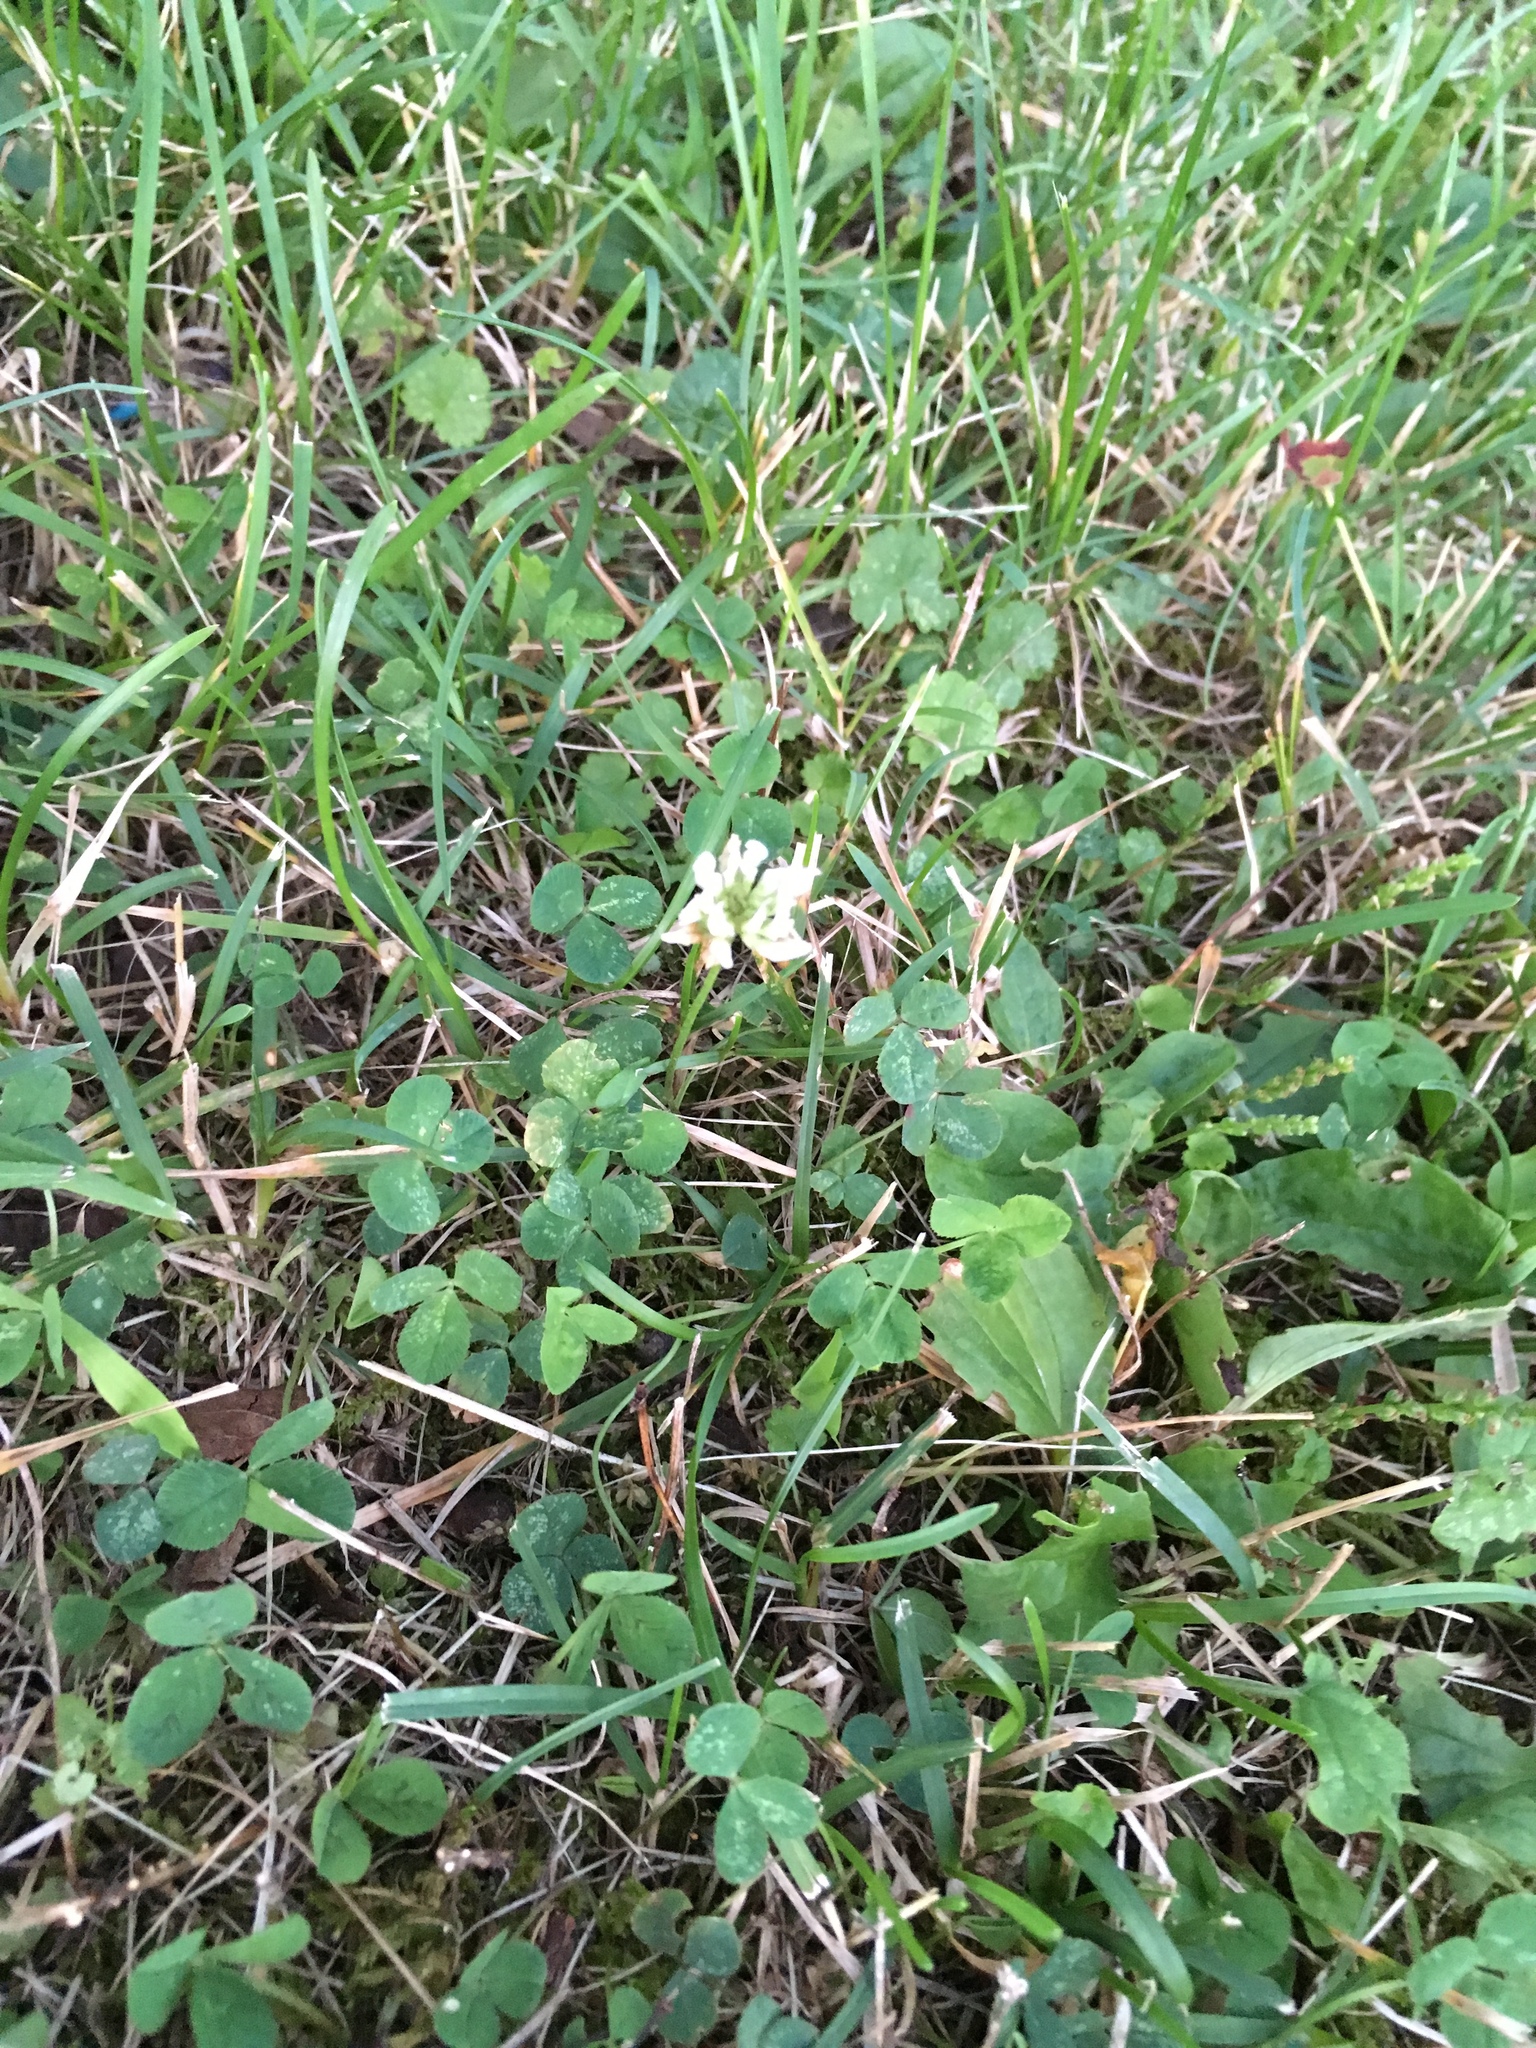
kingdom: Plantae
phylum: Tracheophyta
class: Magnoliopsida
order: Fabales
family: Fabaceae
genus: Trifolium
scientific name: Trifolium repens
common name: White clover
